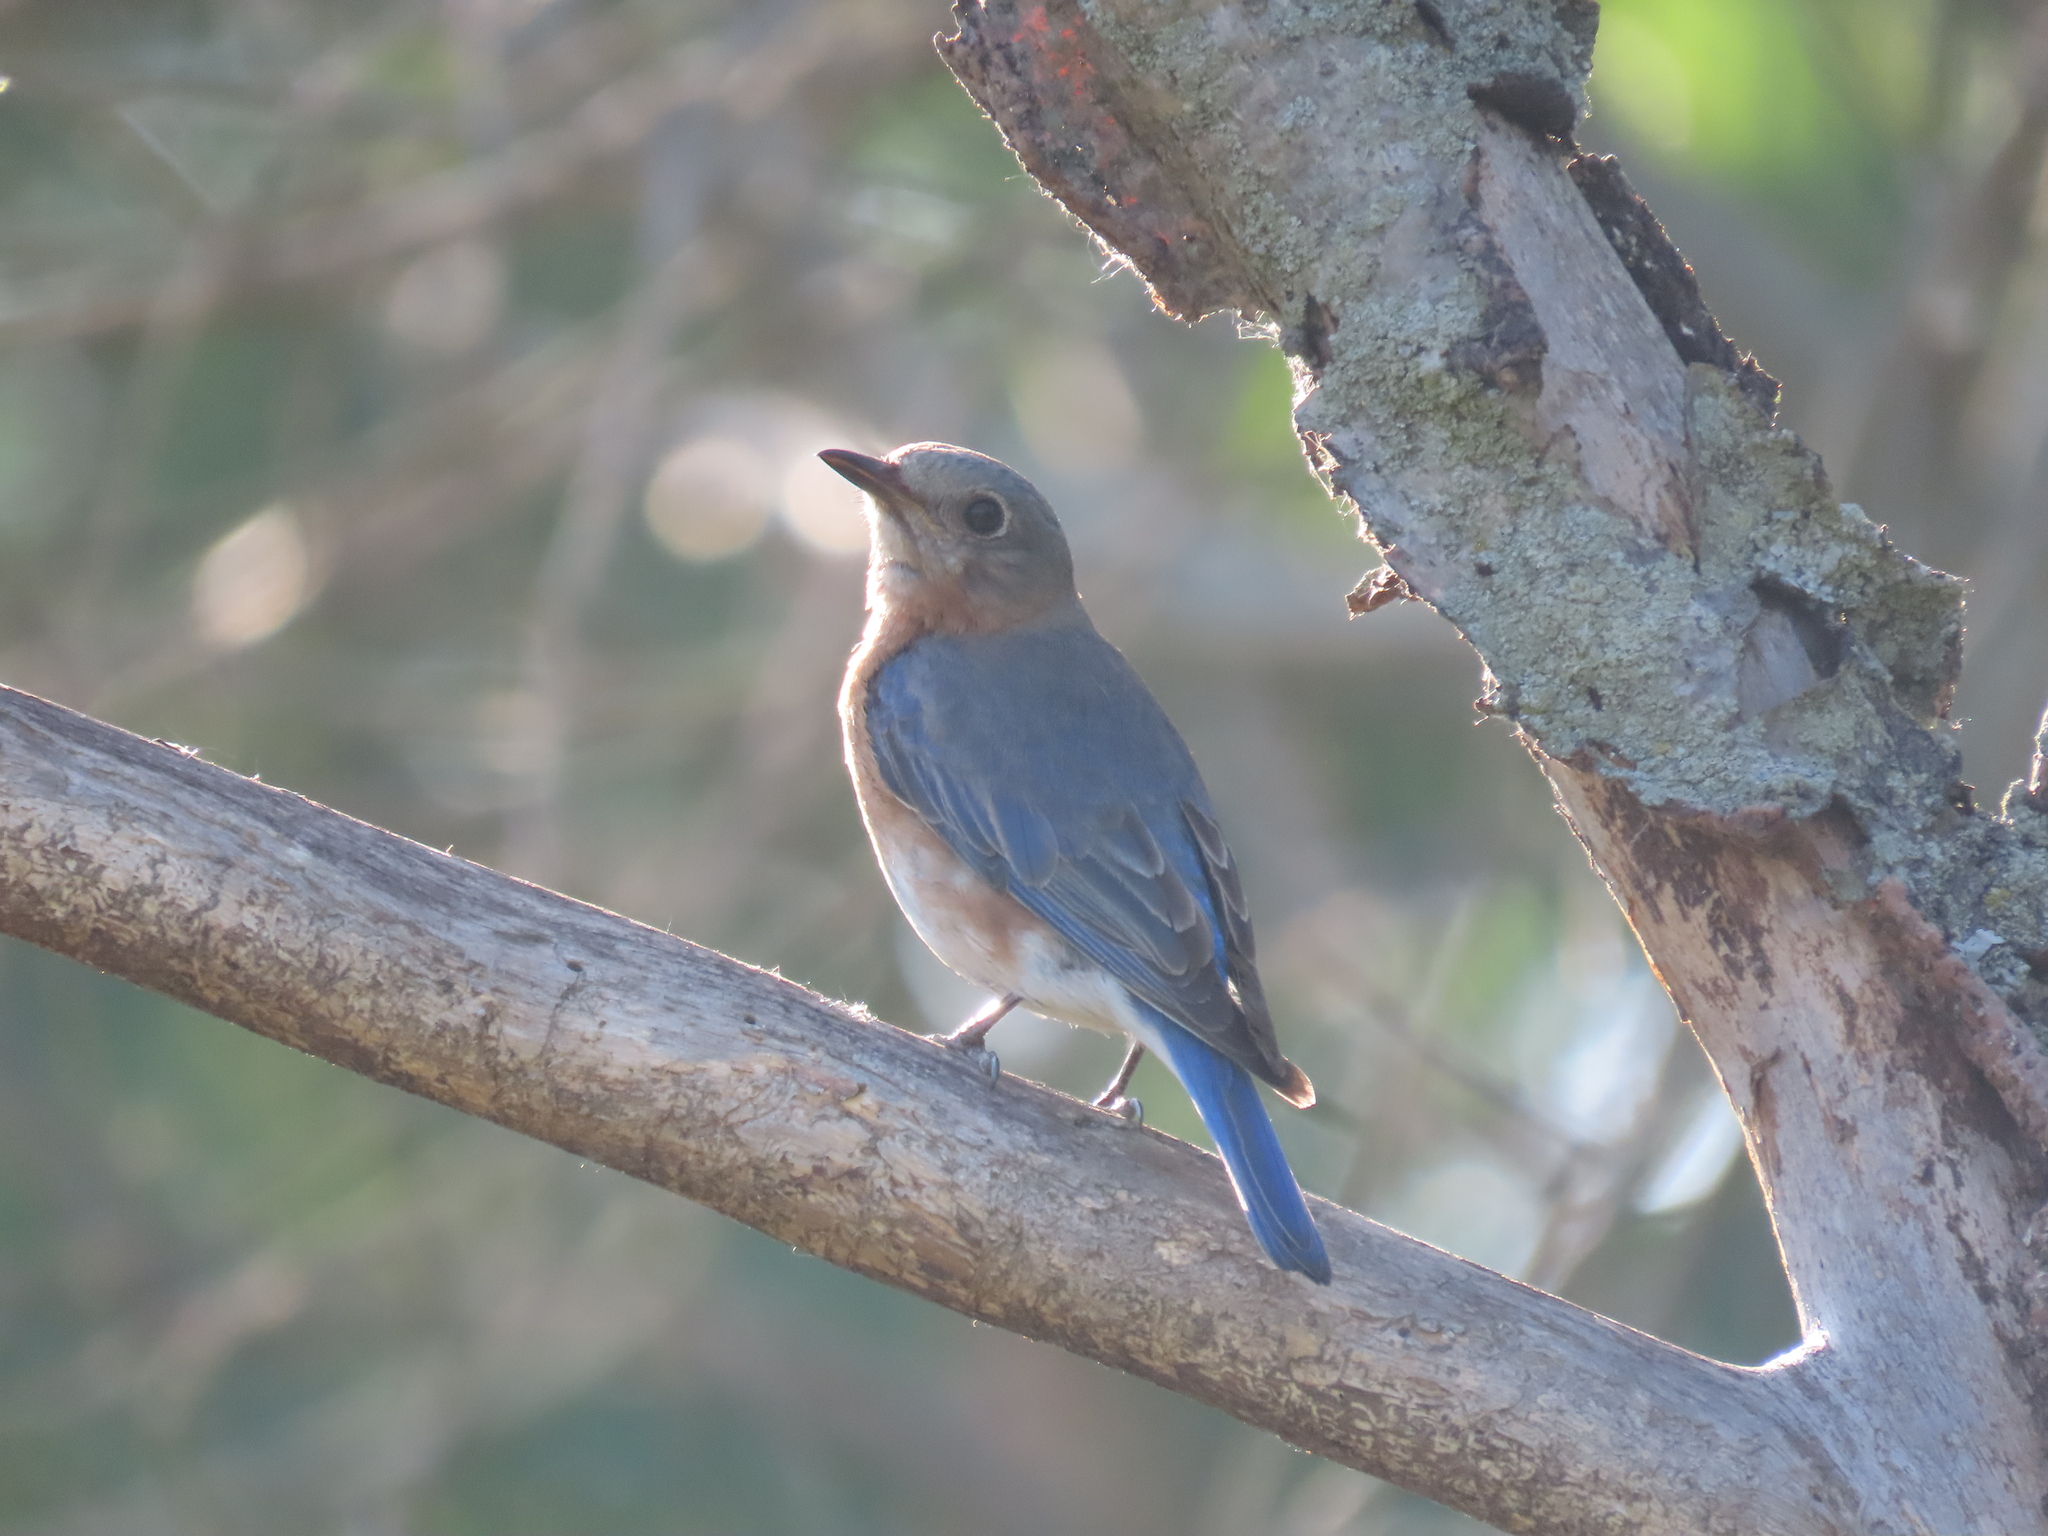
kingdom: Animalia
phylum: Chordata
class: Aves
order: Passeriformes
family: Turdidae
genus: Sialia
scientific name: Sialia sialis
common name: Eastern bluebird
